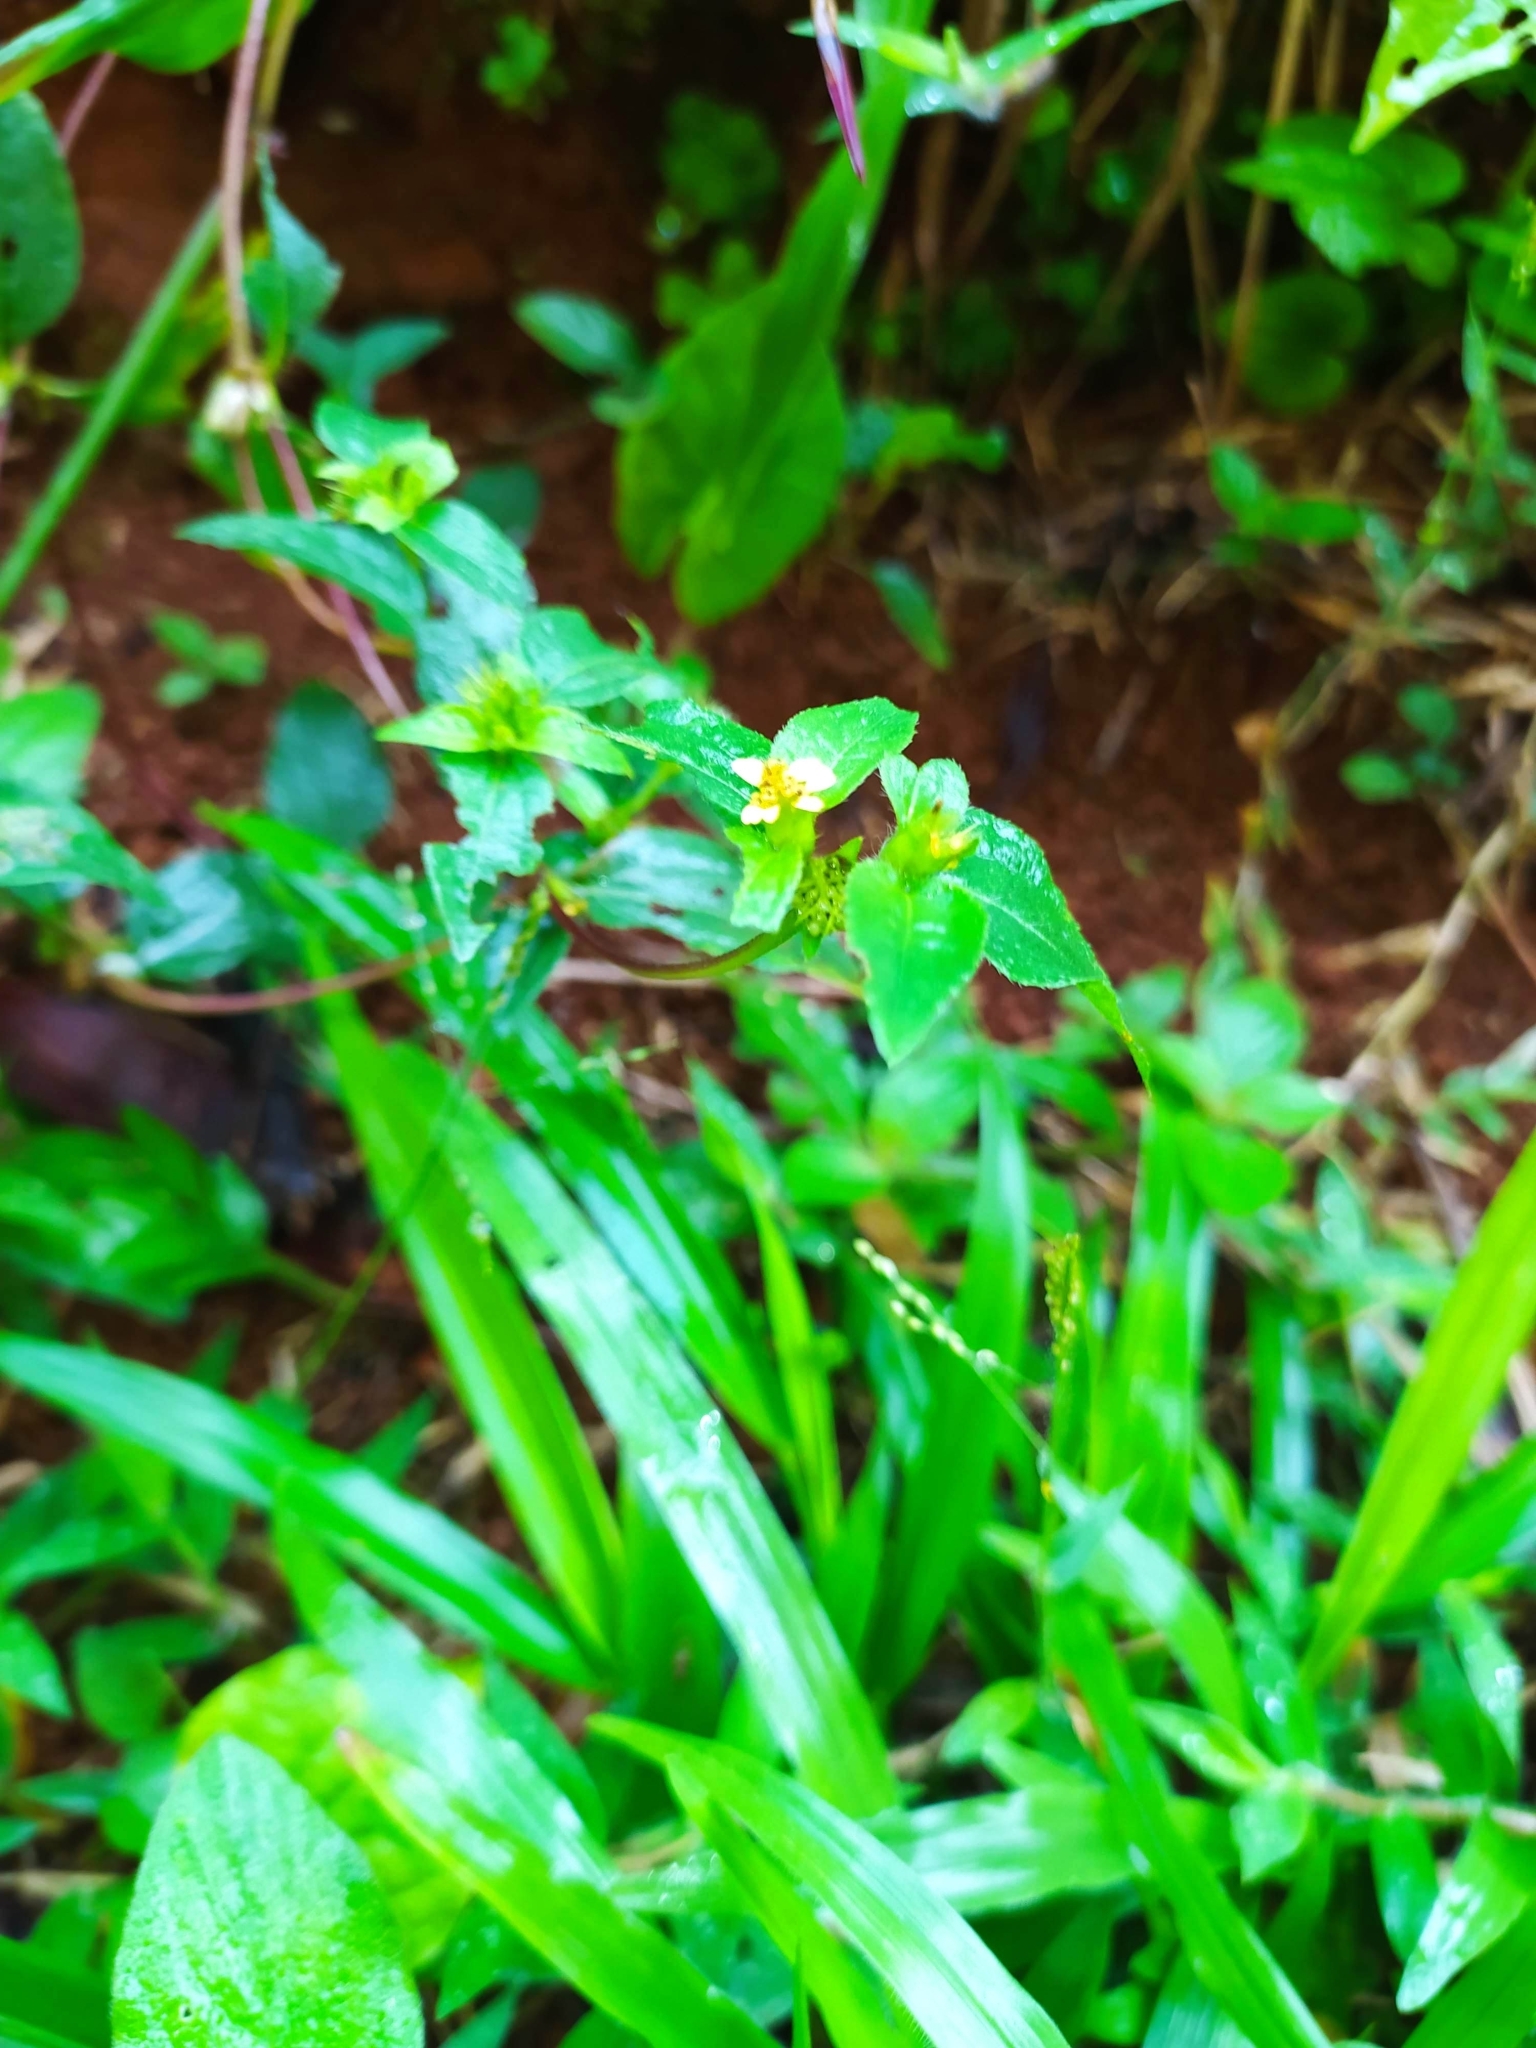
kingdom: Plantae
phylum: Tracheophyta
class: Magnoliopsida
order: Asterales
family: Asteraceae
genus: Synedrella
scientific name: Synedrella nodiflora
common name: Nodeweed
